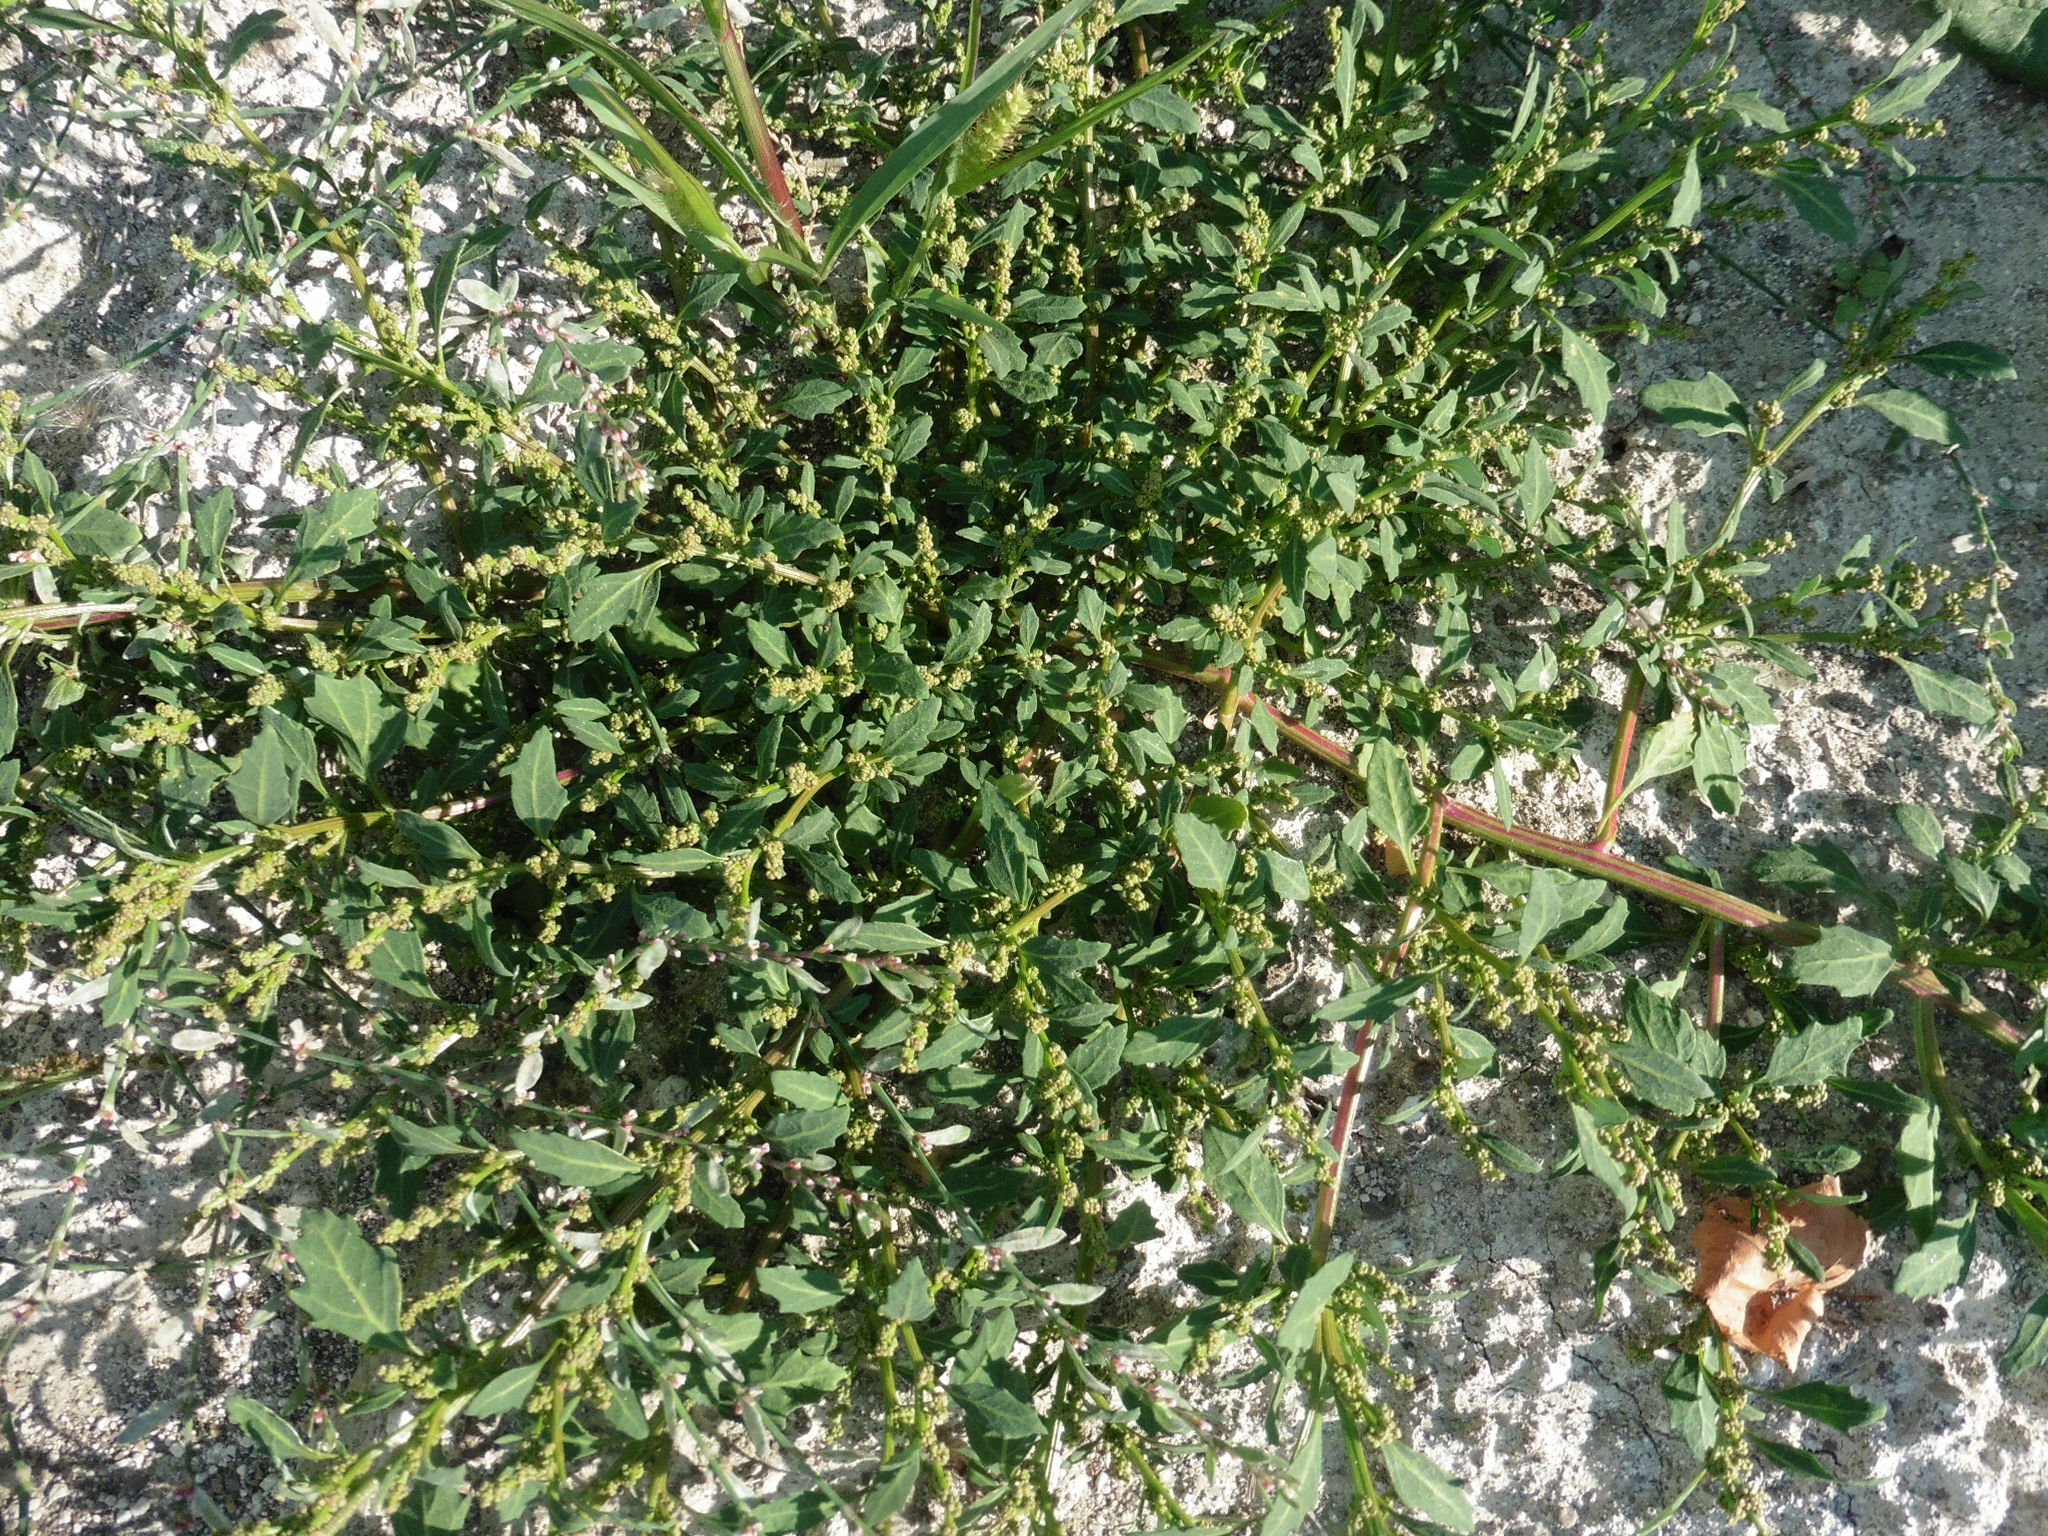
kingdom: Plantae
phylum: Tracheophyta
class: Magnoliopsida
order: Caryophyllales
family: Amaranthaceae
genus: Oxybasis
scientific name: Oxybasis glauca
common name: Glaucous goosefoot
